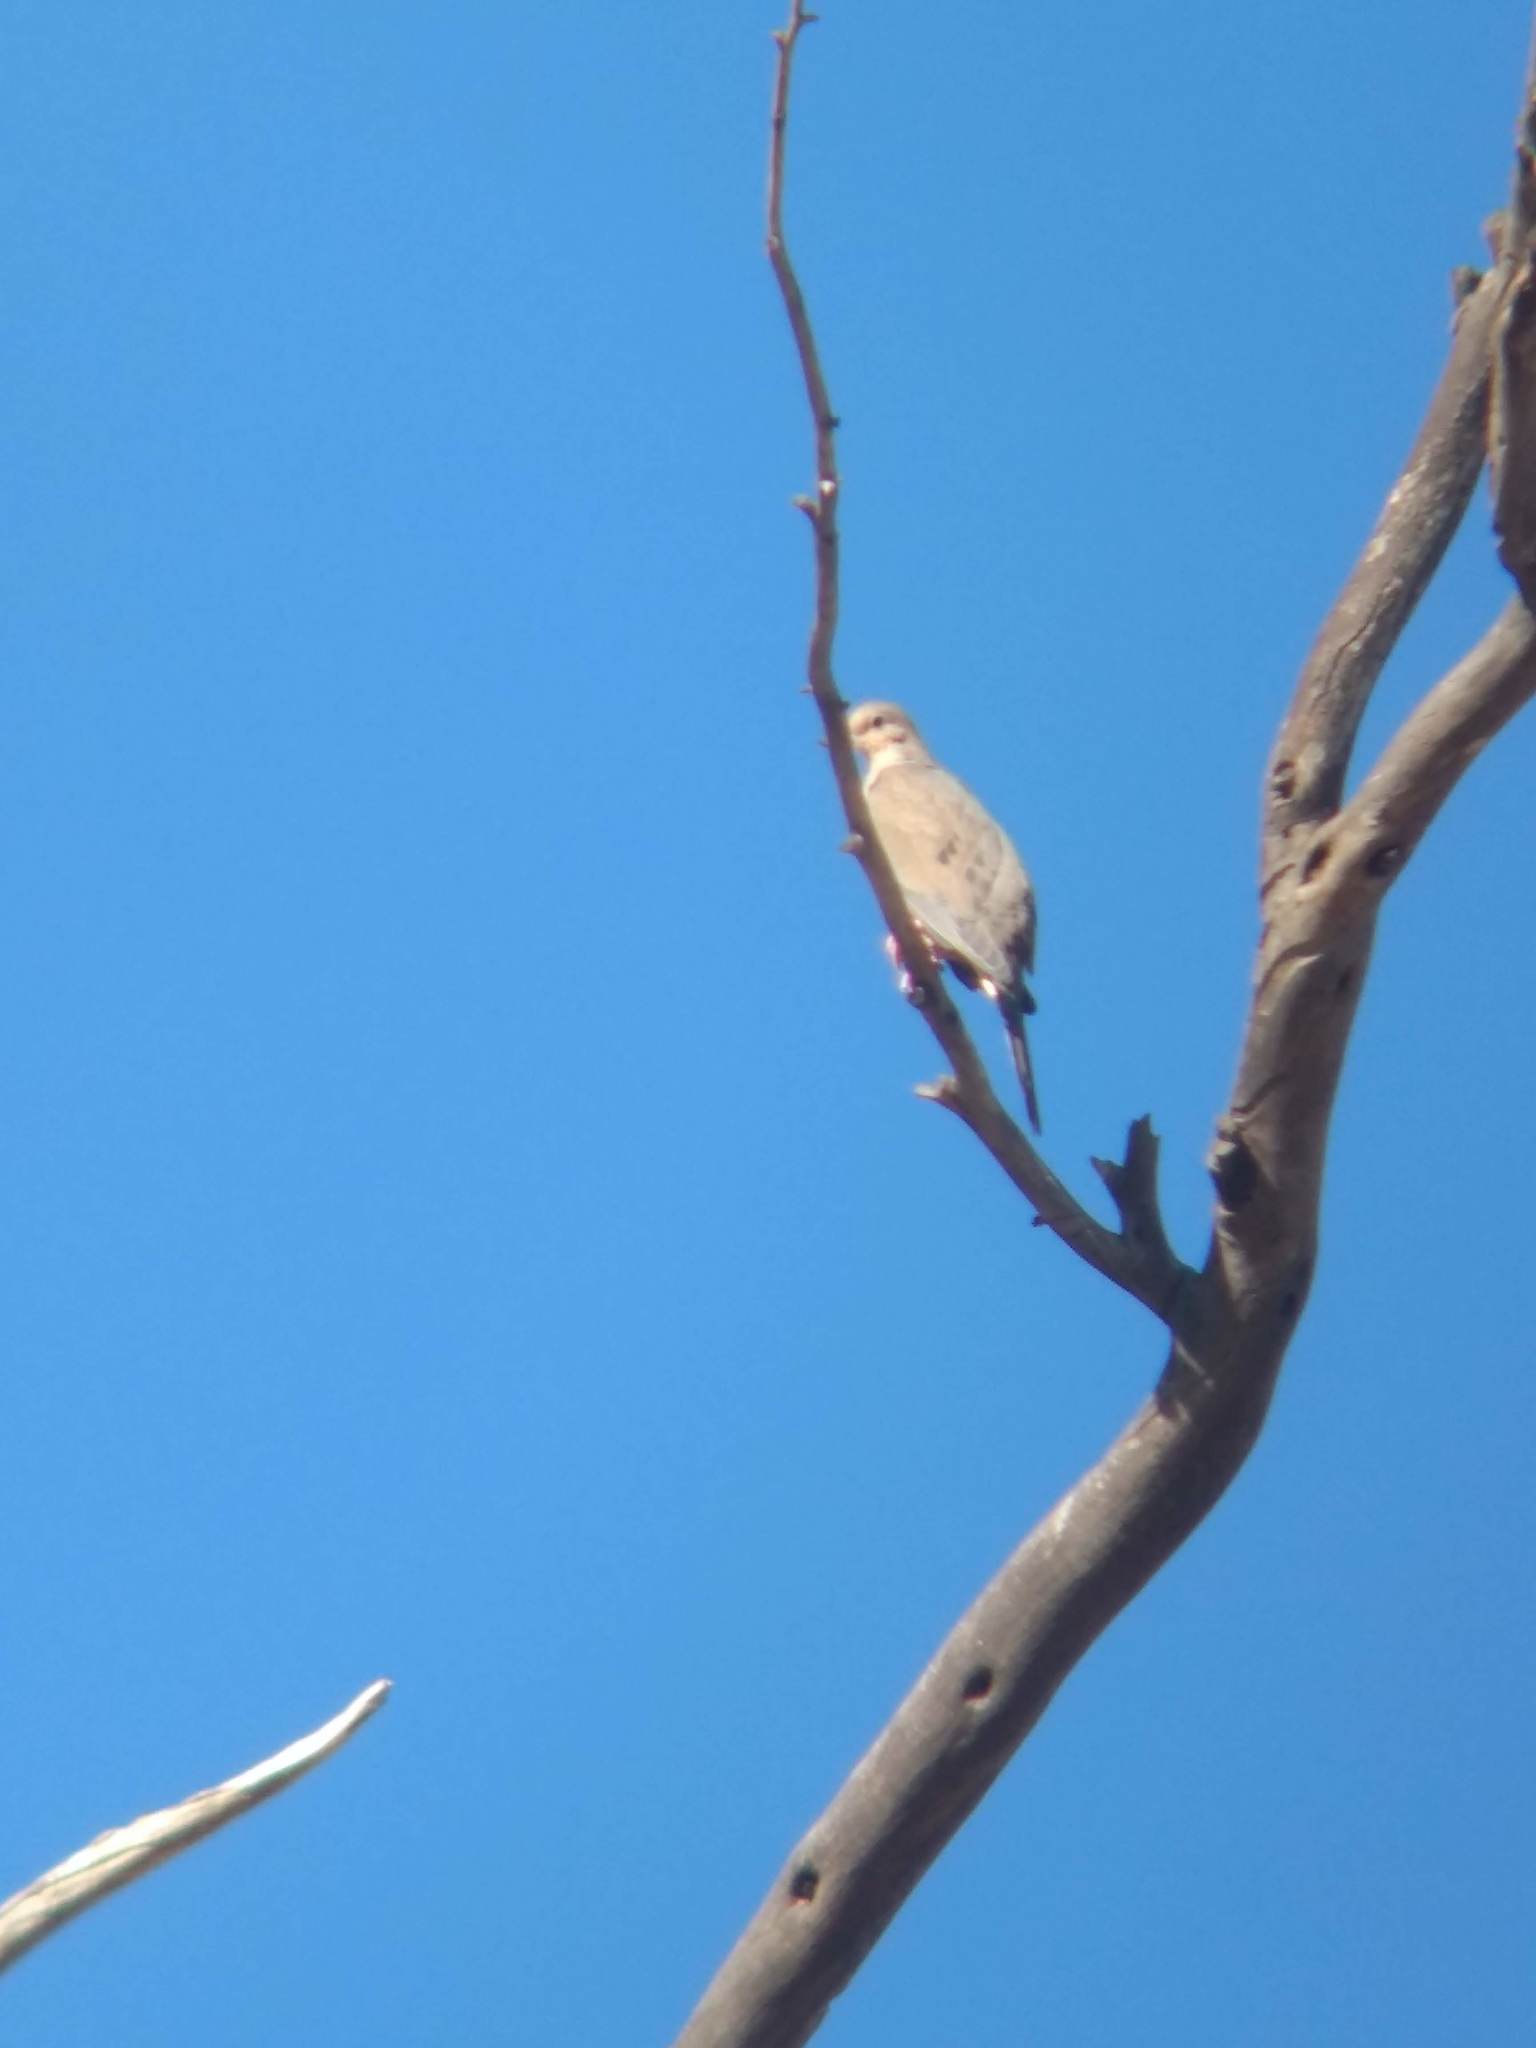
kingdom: Animalia
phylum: Chordata
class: Aves
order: Columbiformes
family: Columbidae
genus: Zenaida
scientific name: Zenaida macroura
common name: Mourning dove
